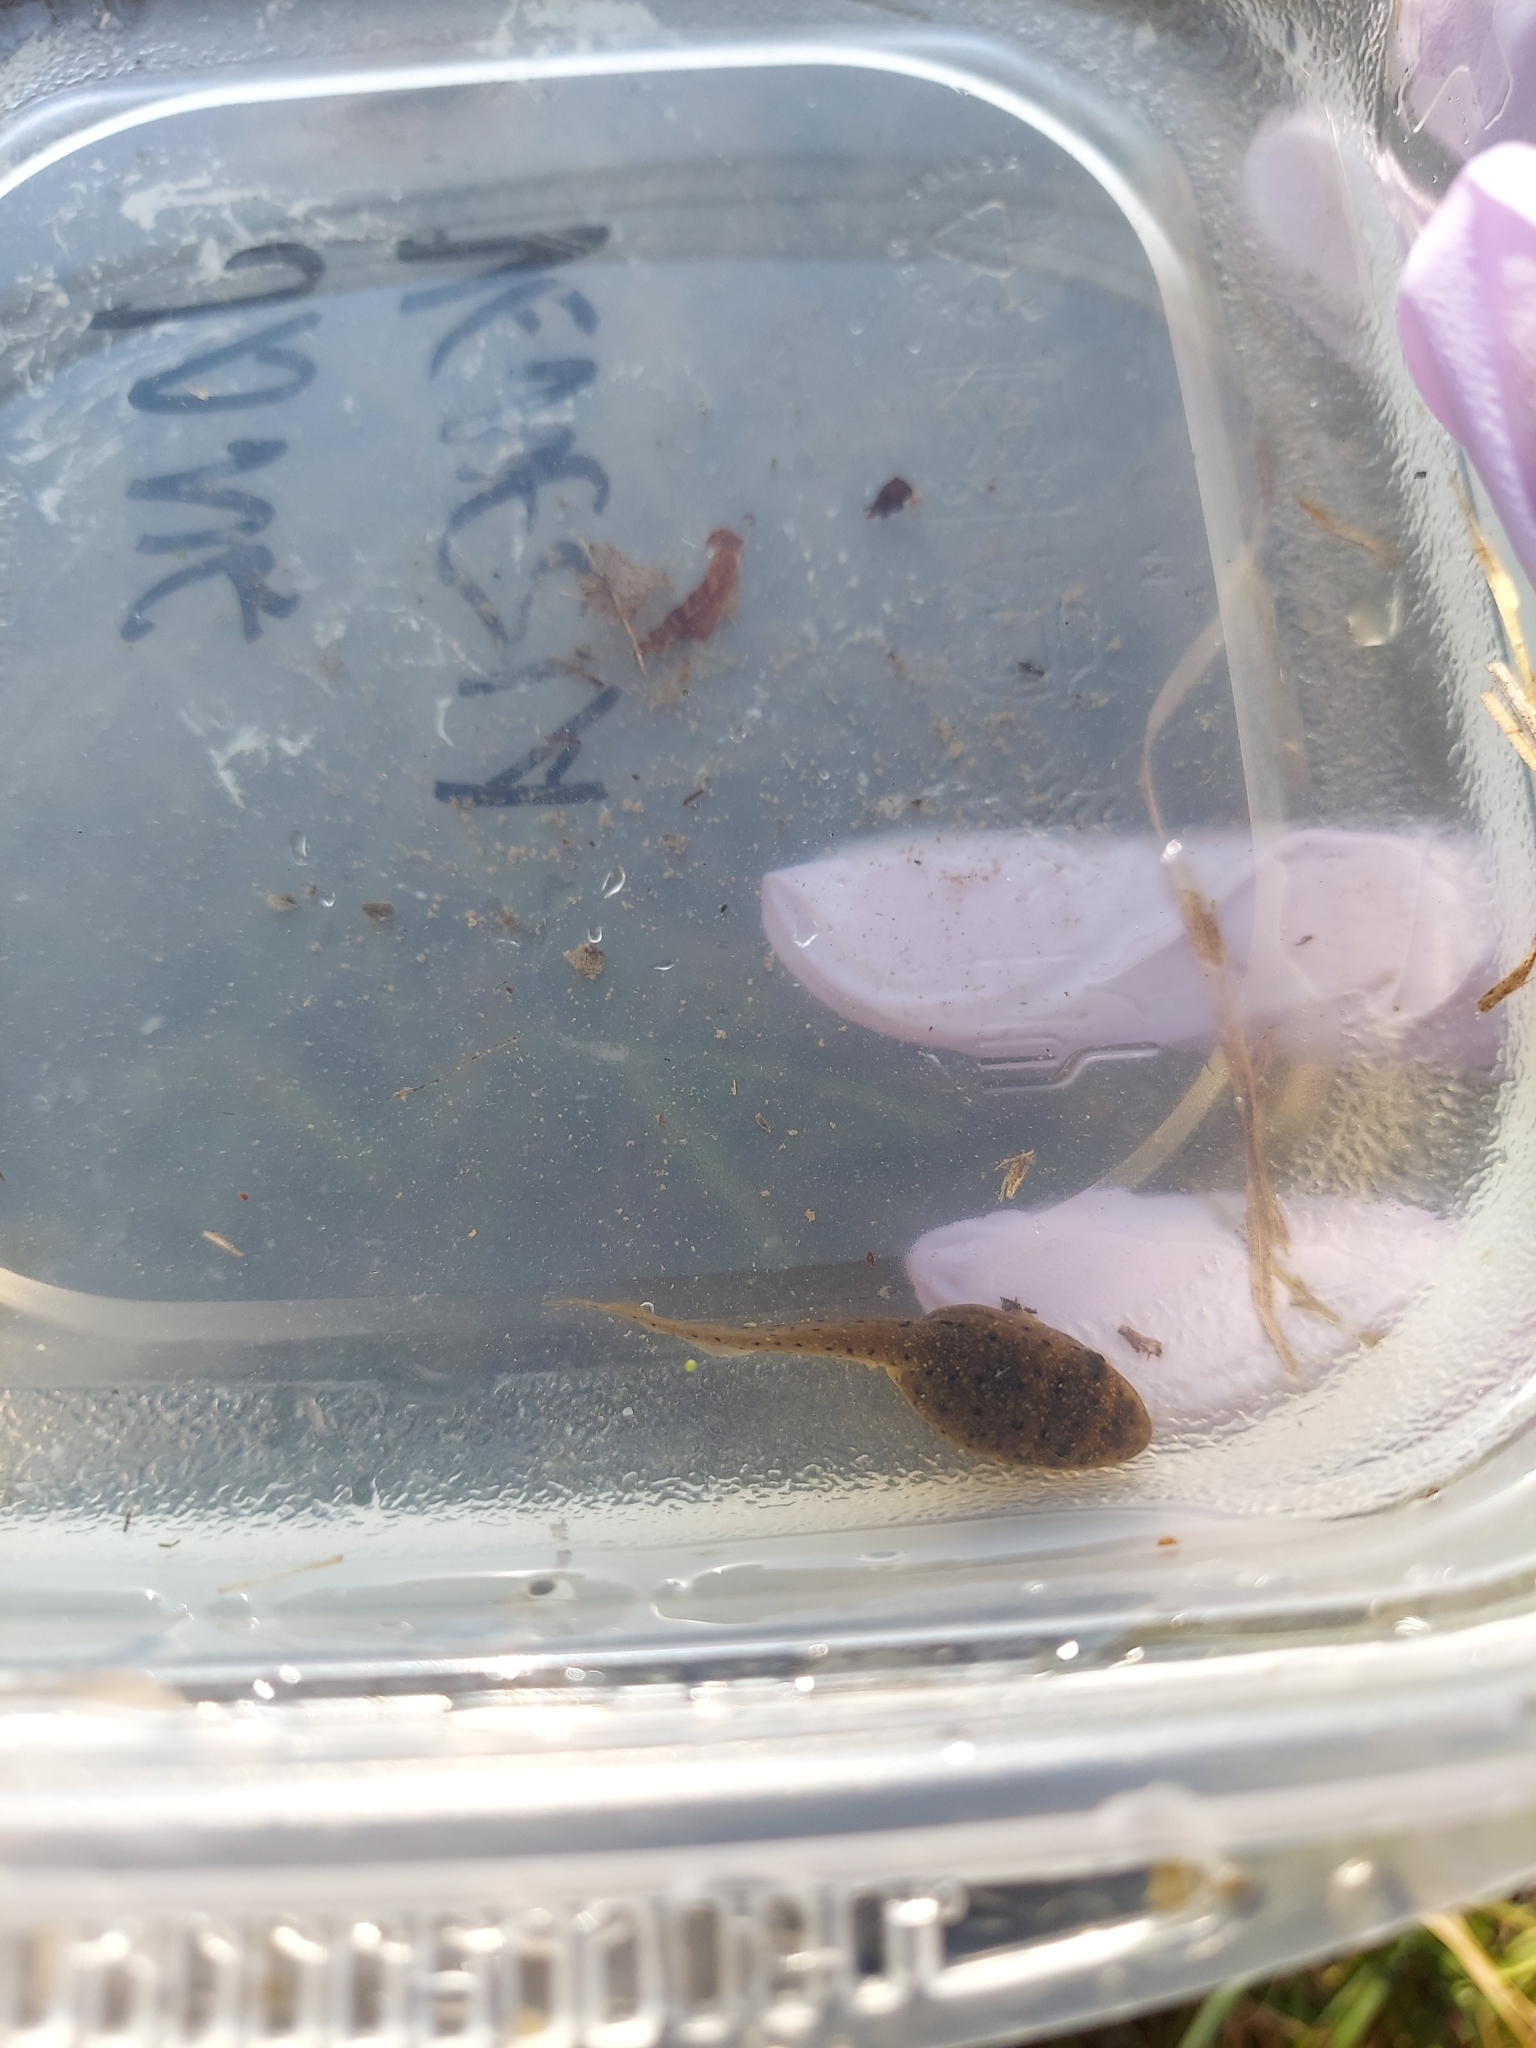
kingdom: Animalia
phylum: Chordata
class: Amphibia
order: Anura
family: Ranidae
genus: Lithobates
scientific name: Lithobates catesbeianus
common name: American bullfrog
